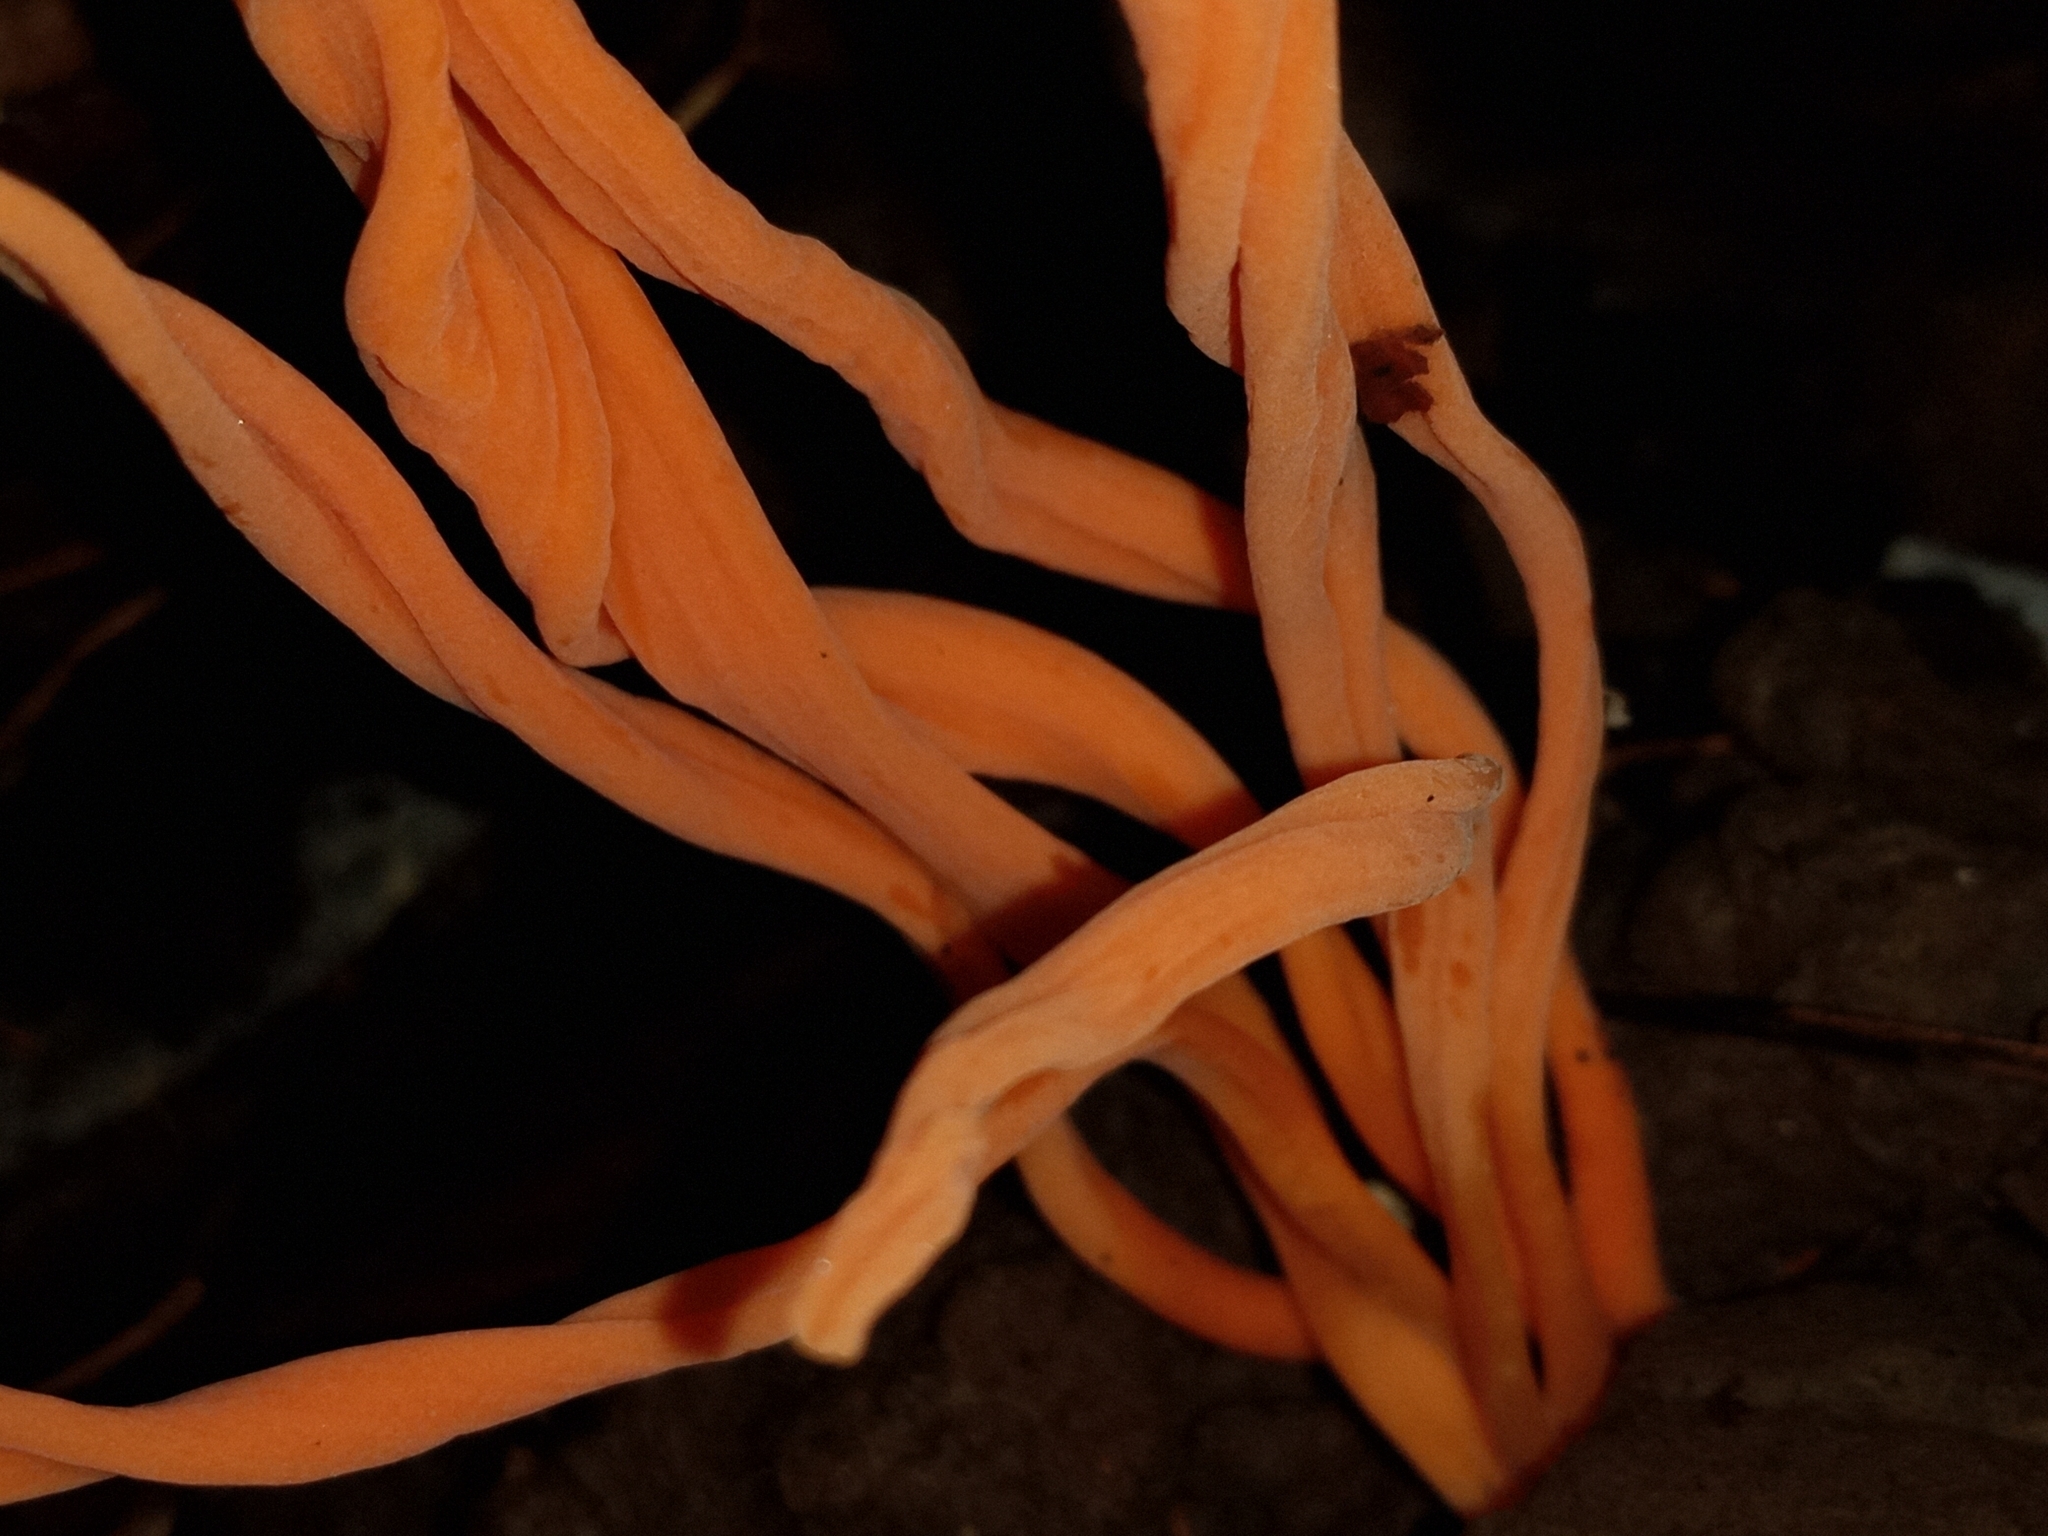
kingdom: Fungi
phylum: Basidiomycota
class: Agaricomycetes
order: Agaricales
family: Clavariaceae
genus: Clavaria
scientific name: Clavaria phoenicea
